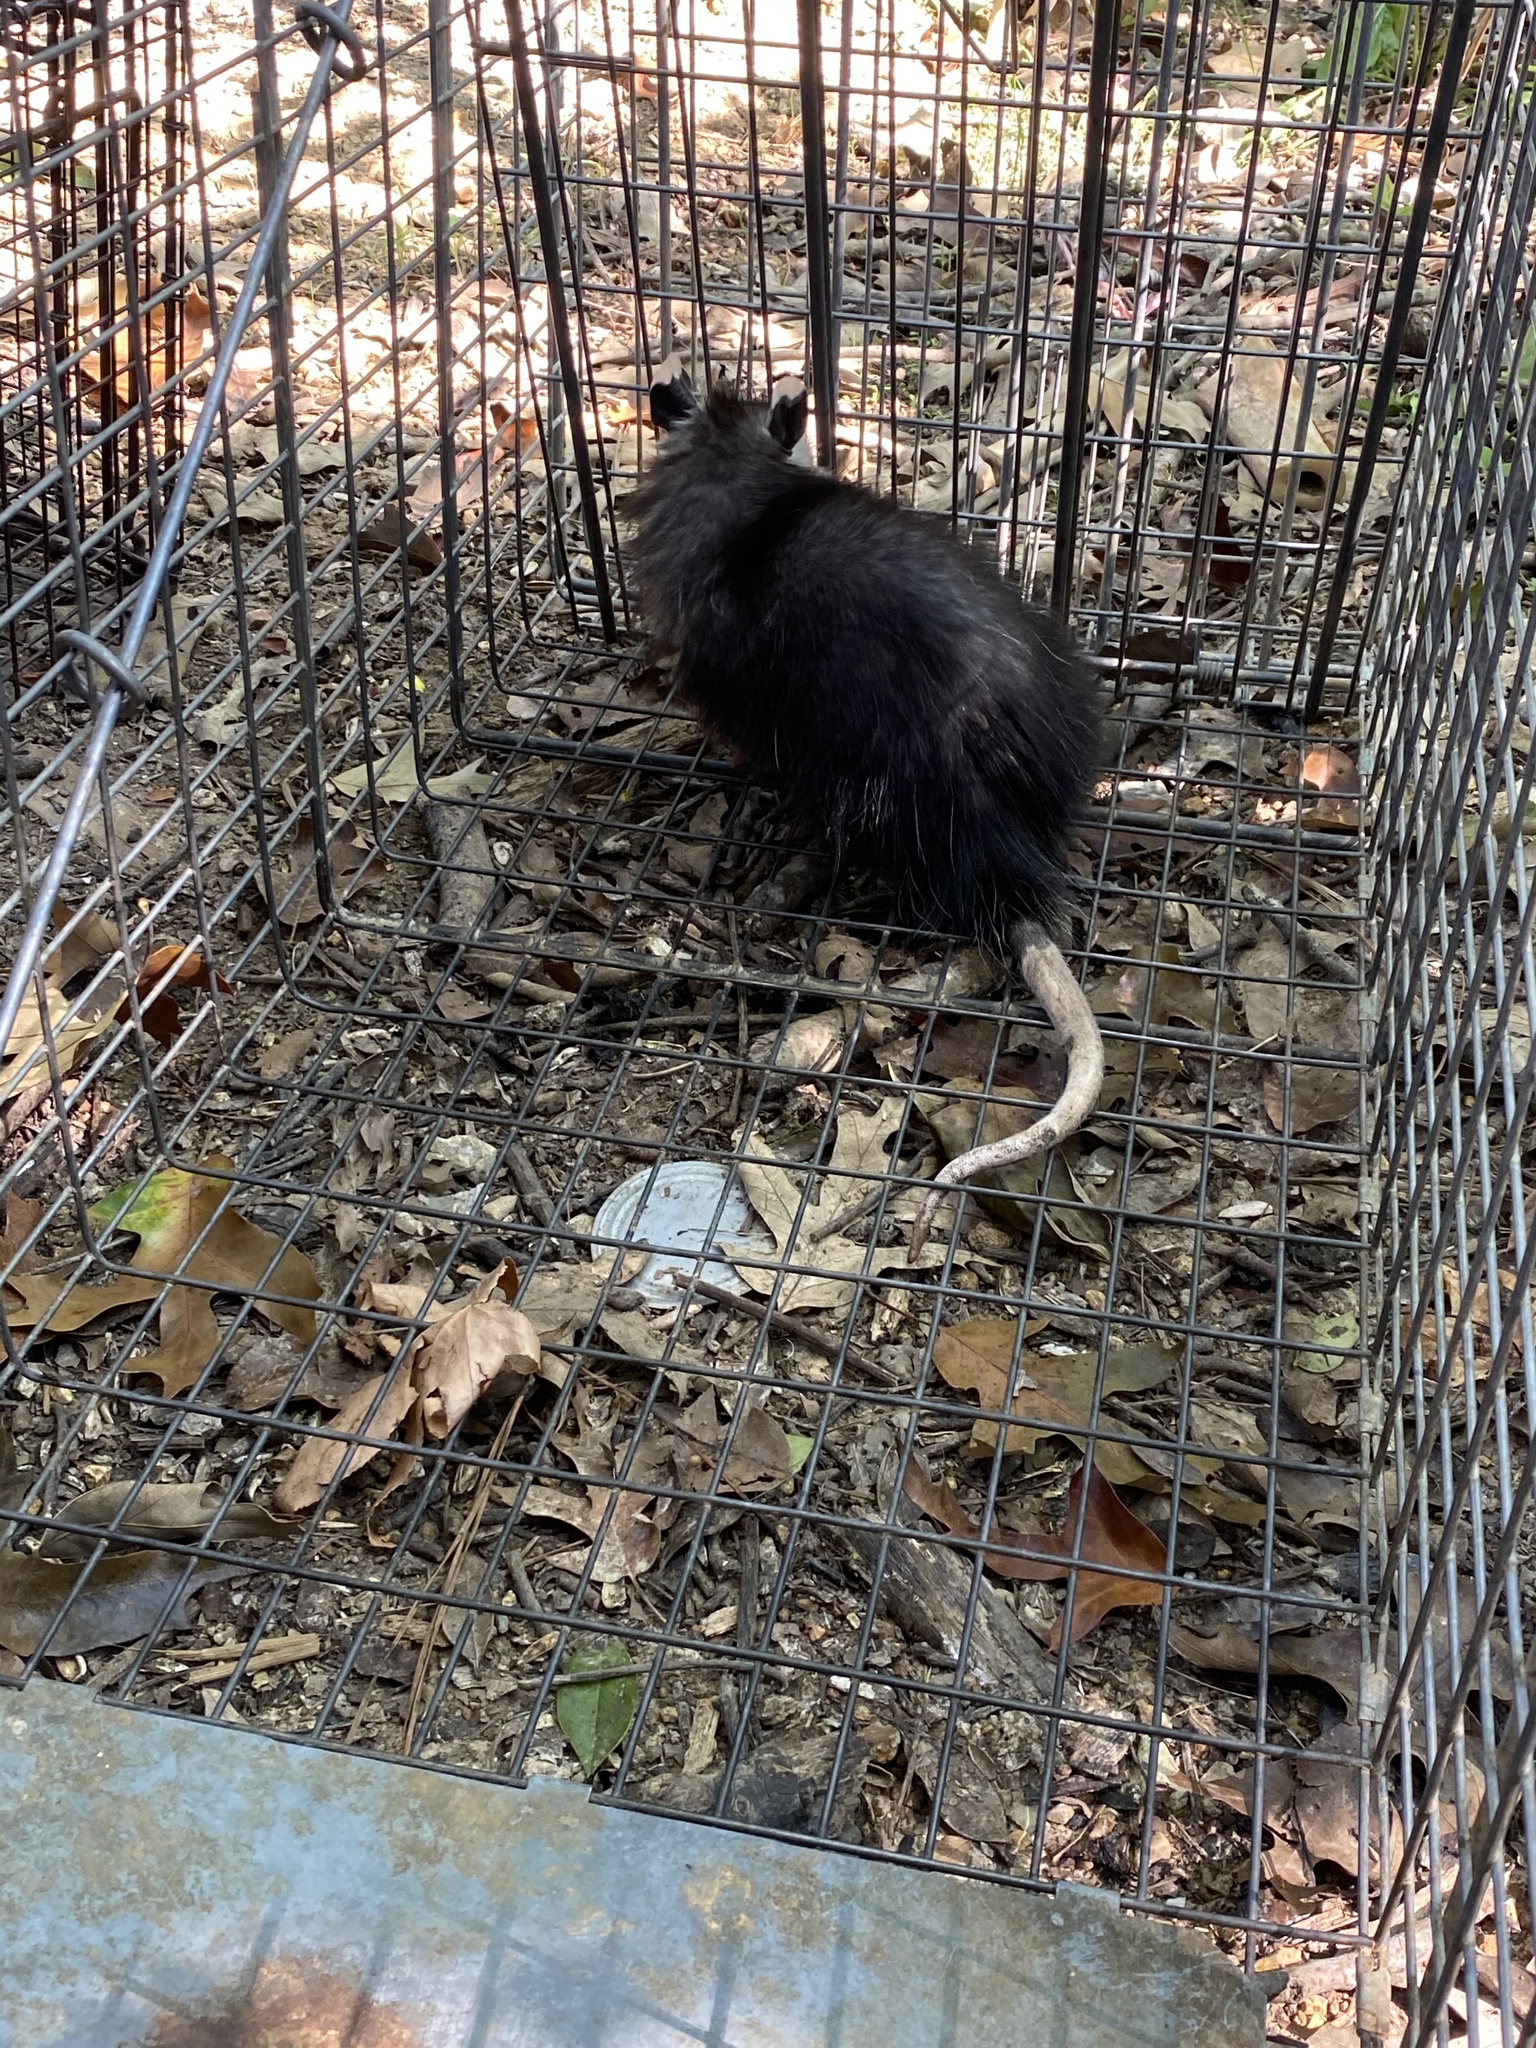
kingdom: Animalia
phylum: Chordata
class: Mammalia
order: Didelphimorphia
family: Didelphidae
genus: Didelphis
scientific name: Didelphis virginiana
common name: Virginia opossum
